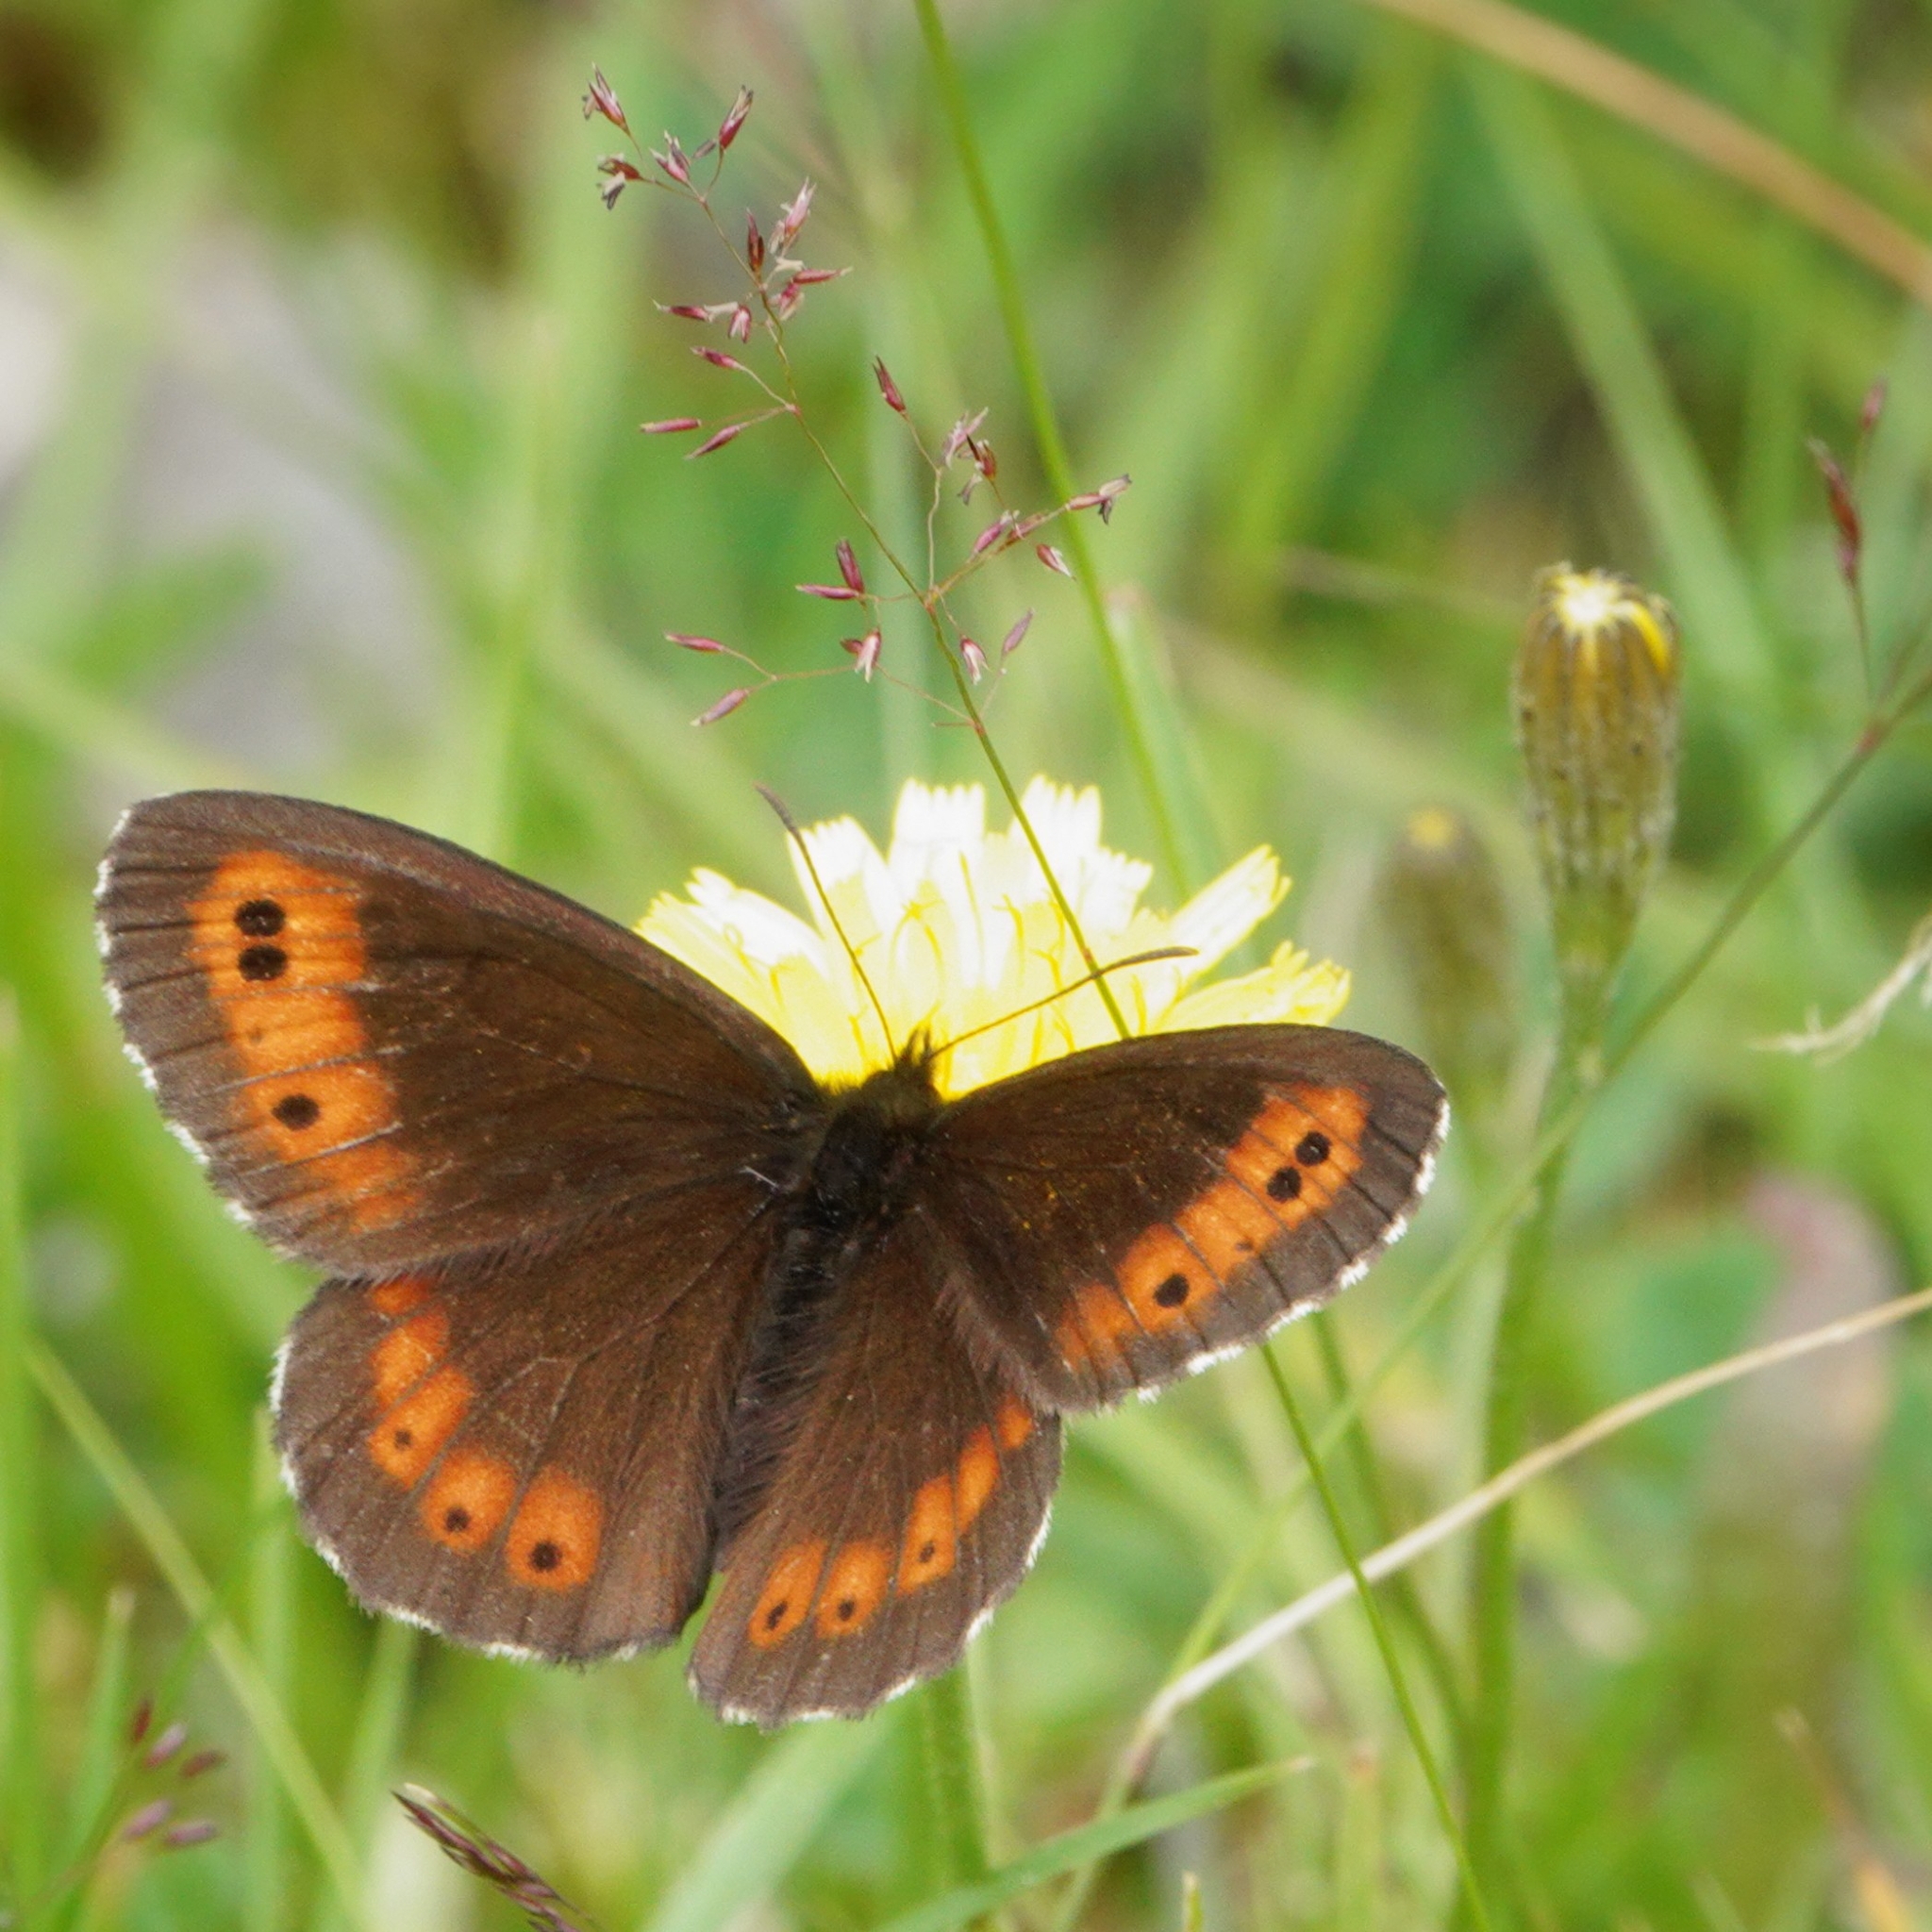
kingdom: Animalia
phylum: Arthropoda
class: Insecta
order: Lepidoptera
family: Nymphalidae
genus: Erebia
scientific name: Erebia ligea
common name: Arran brown
